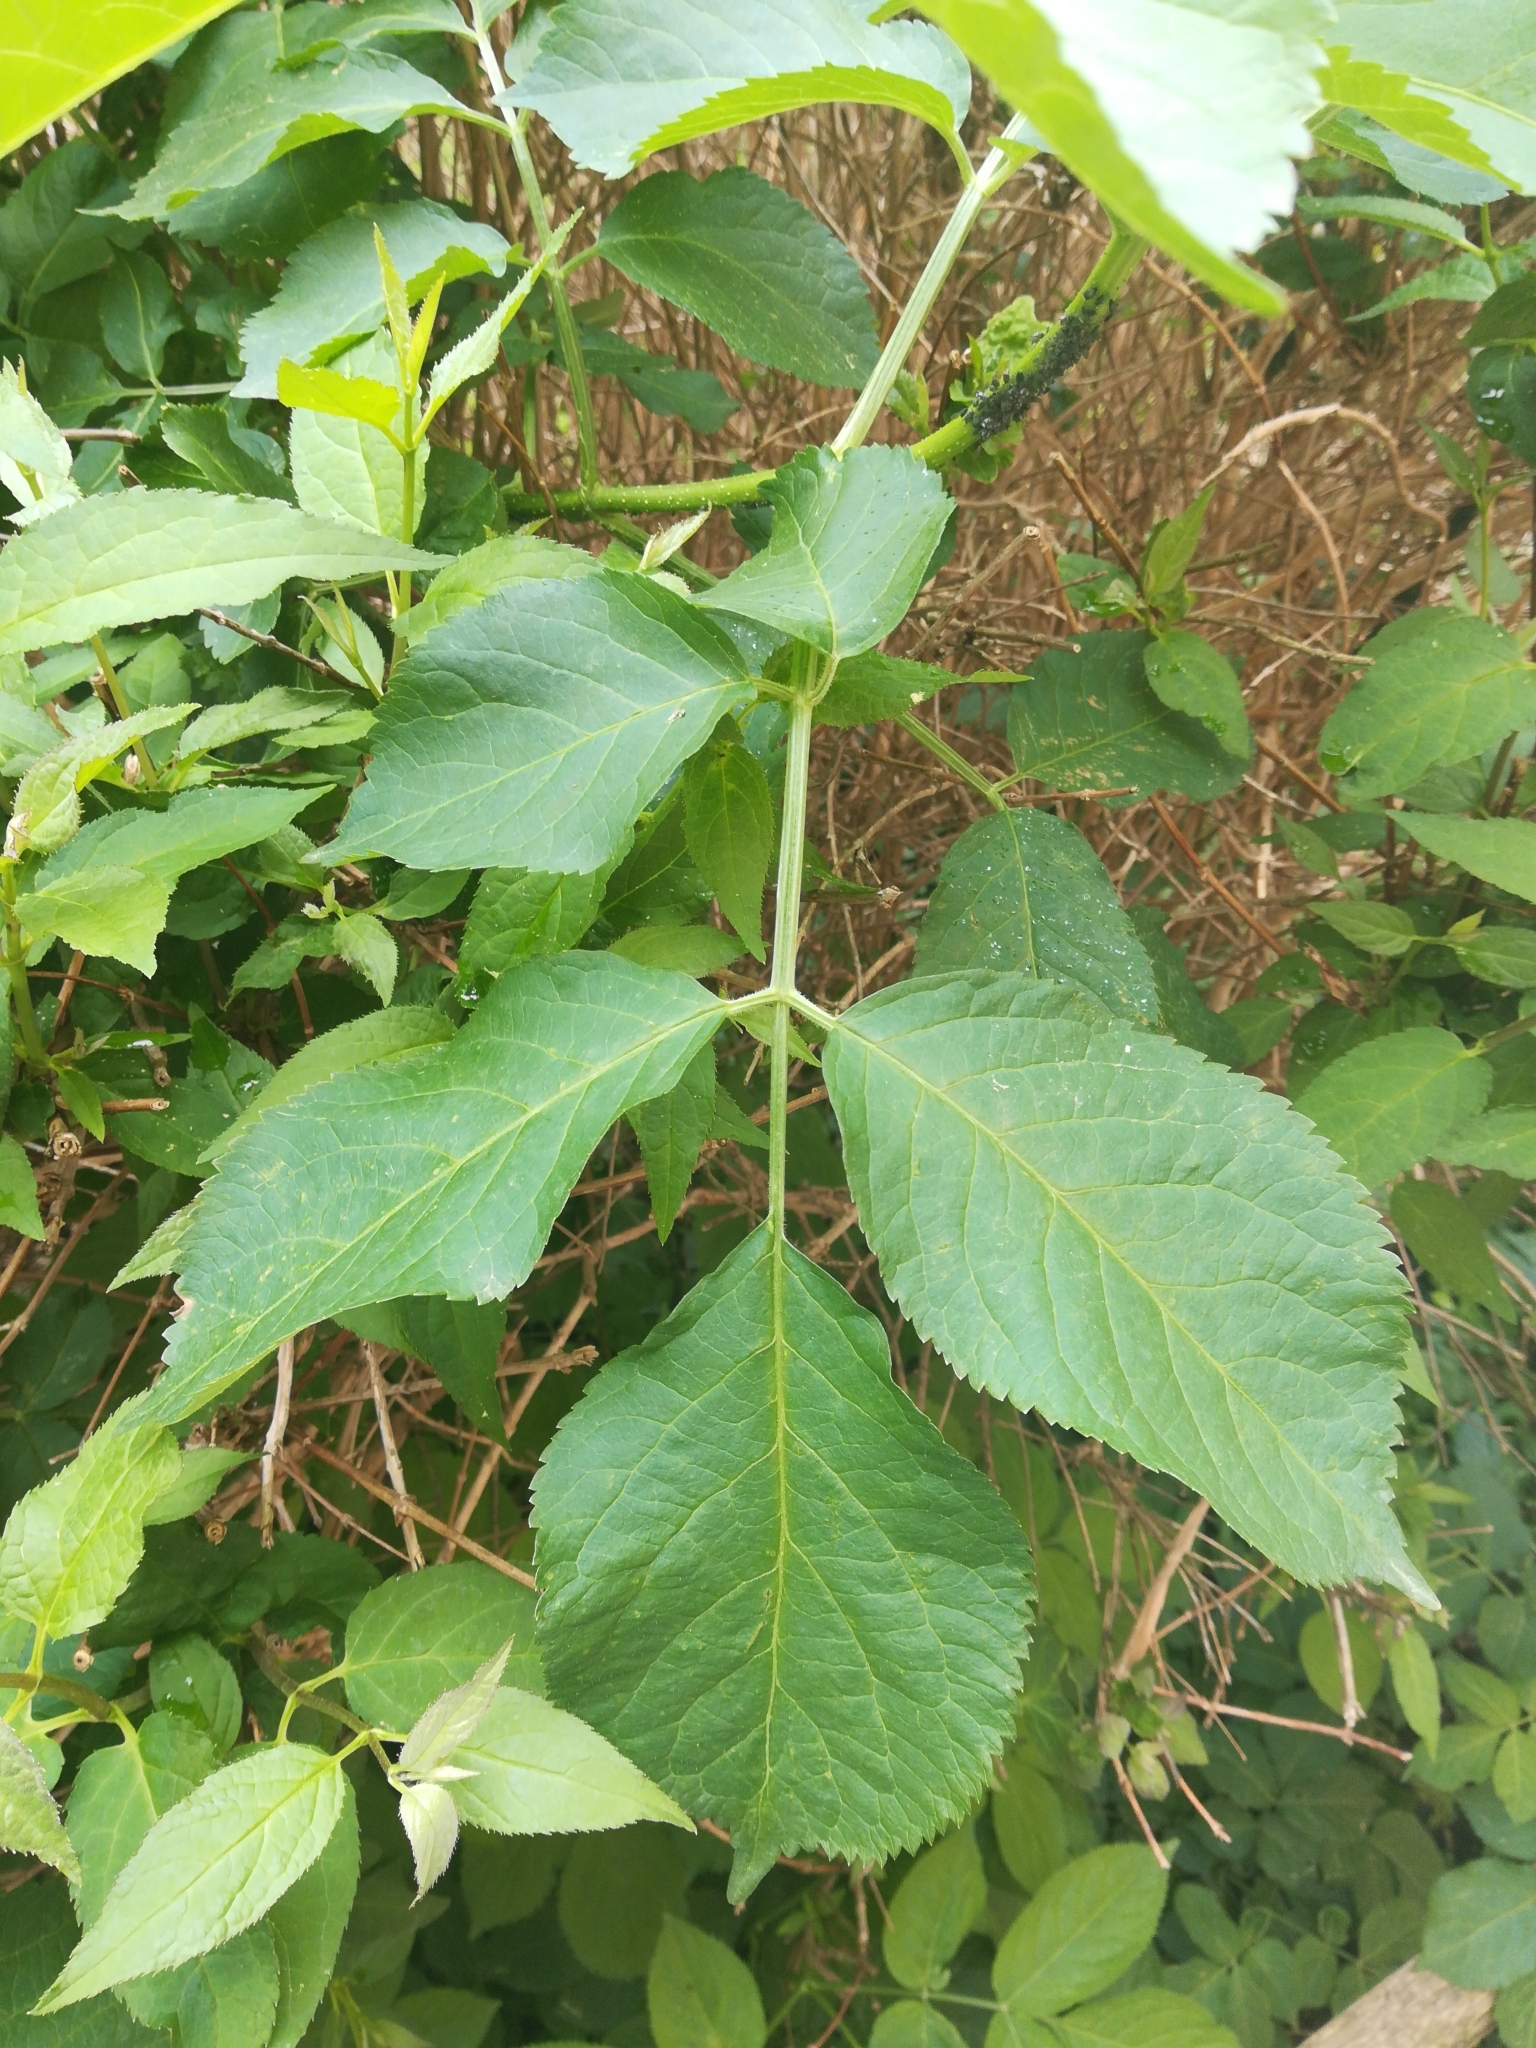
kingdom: Plantae
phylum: Tracheophyta
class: Magnoliopsida
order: Dipsacales
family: Viburnaceae
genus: Sambucus
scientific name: Sambucus nigra
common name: Elder
